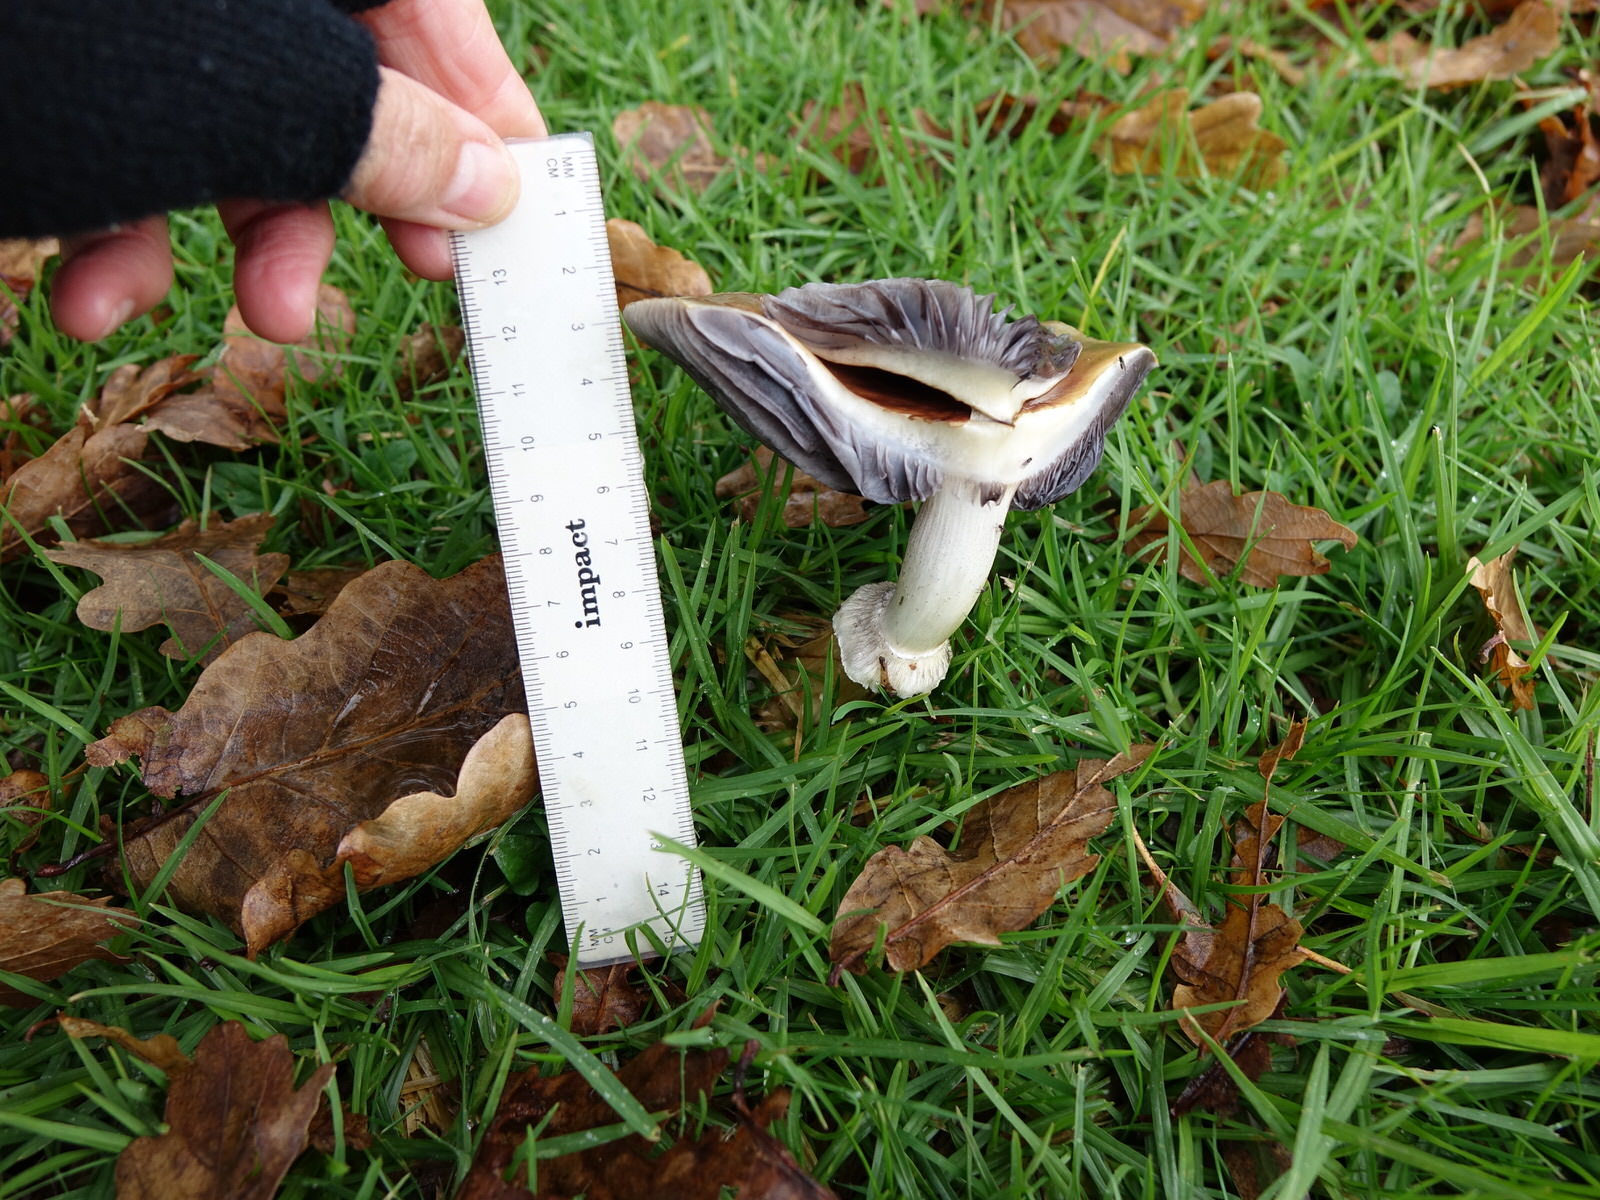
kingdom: Fungi
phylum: Basidiomycota
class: Agaricomycetes
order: Agaricales
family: Strophariaceae
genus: Stropharia
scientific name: Stropharia rugosoannulata
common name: Wine roundhead
